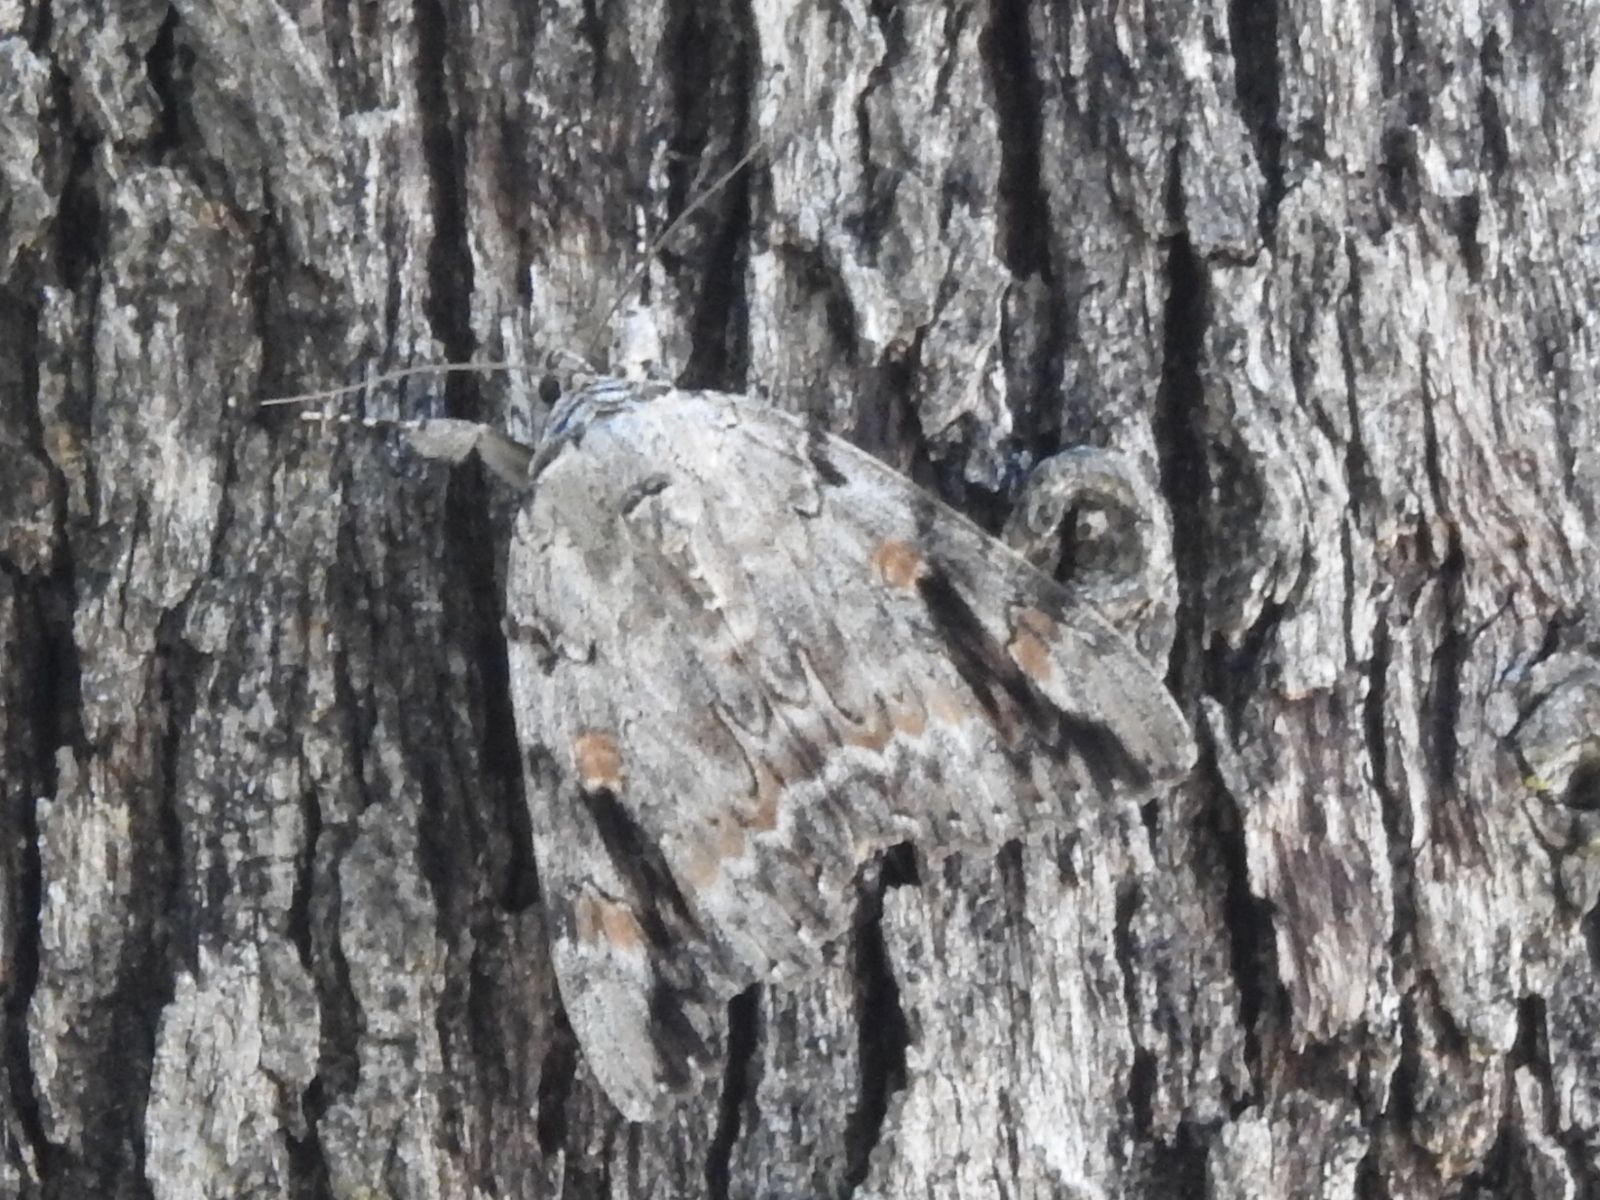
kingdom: Animalia
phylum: Arthropoda
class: Insecta
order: Lepidoptera
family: Erebidae
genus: Catocala
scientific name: Catocala maestosa
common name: Sad underwing
